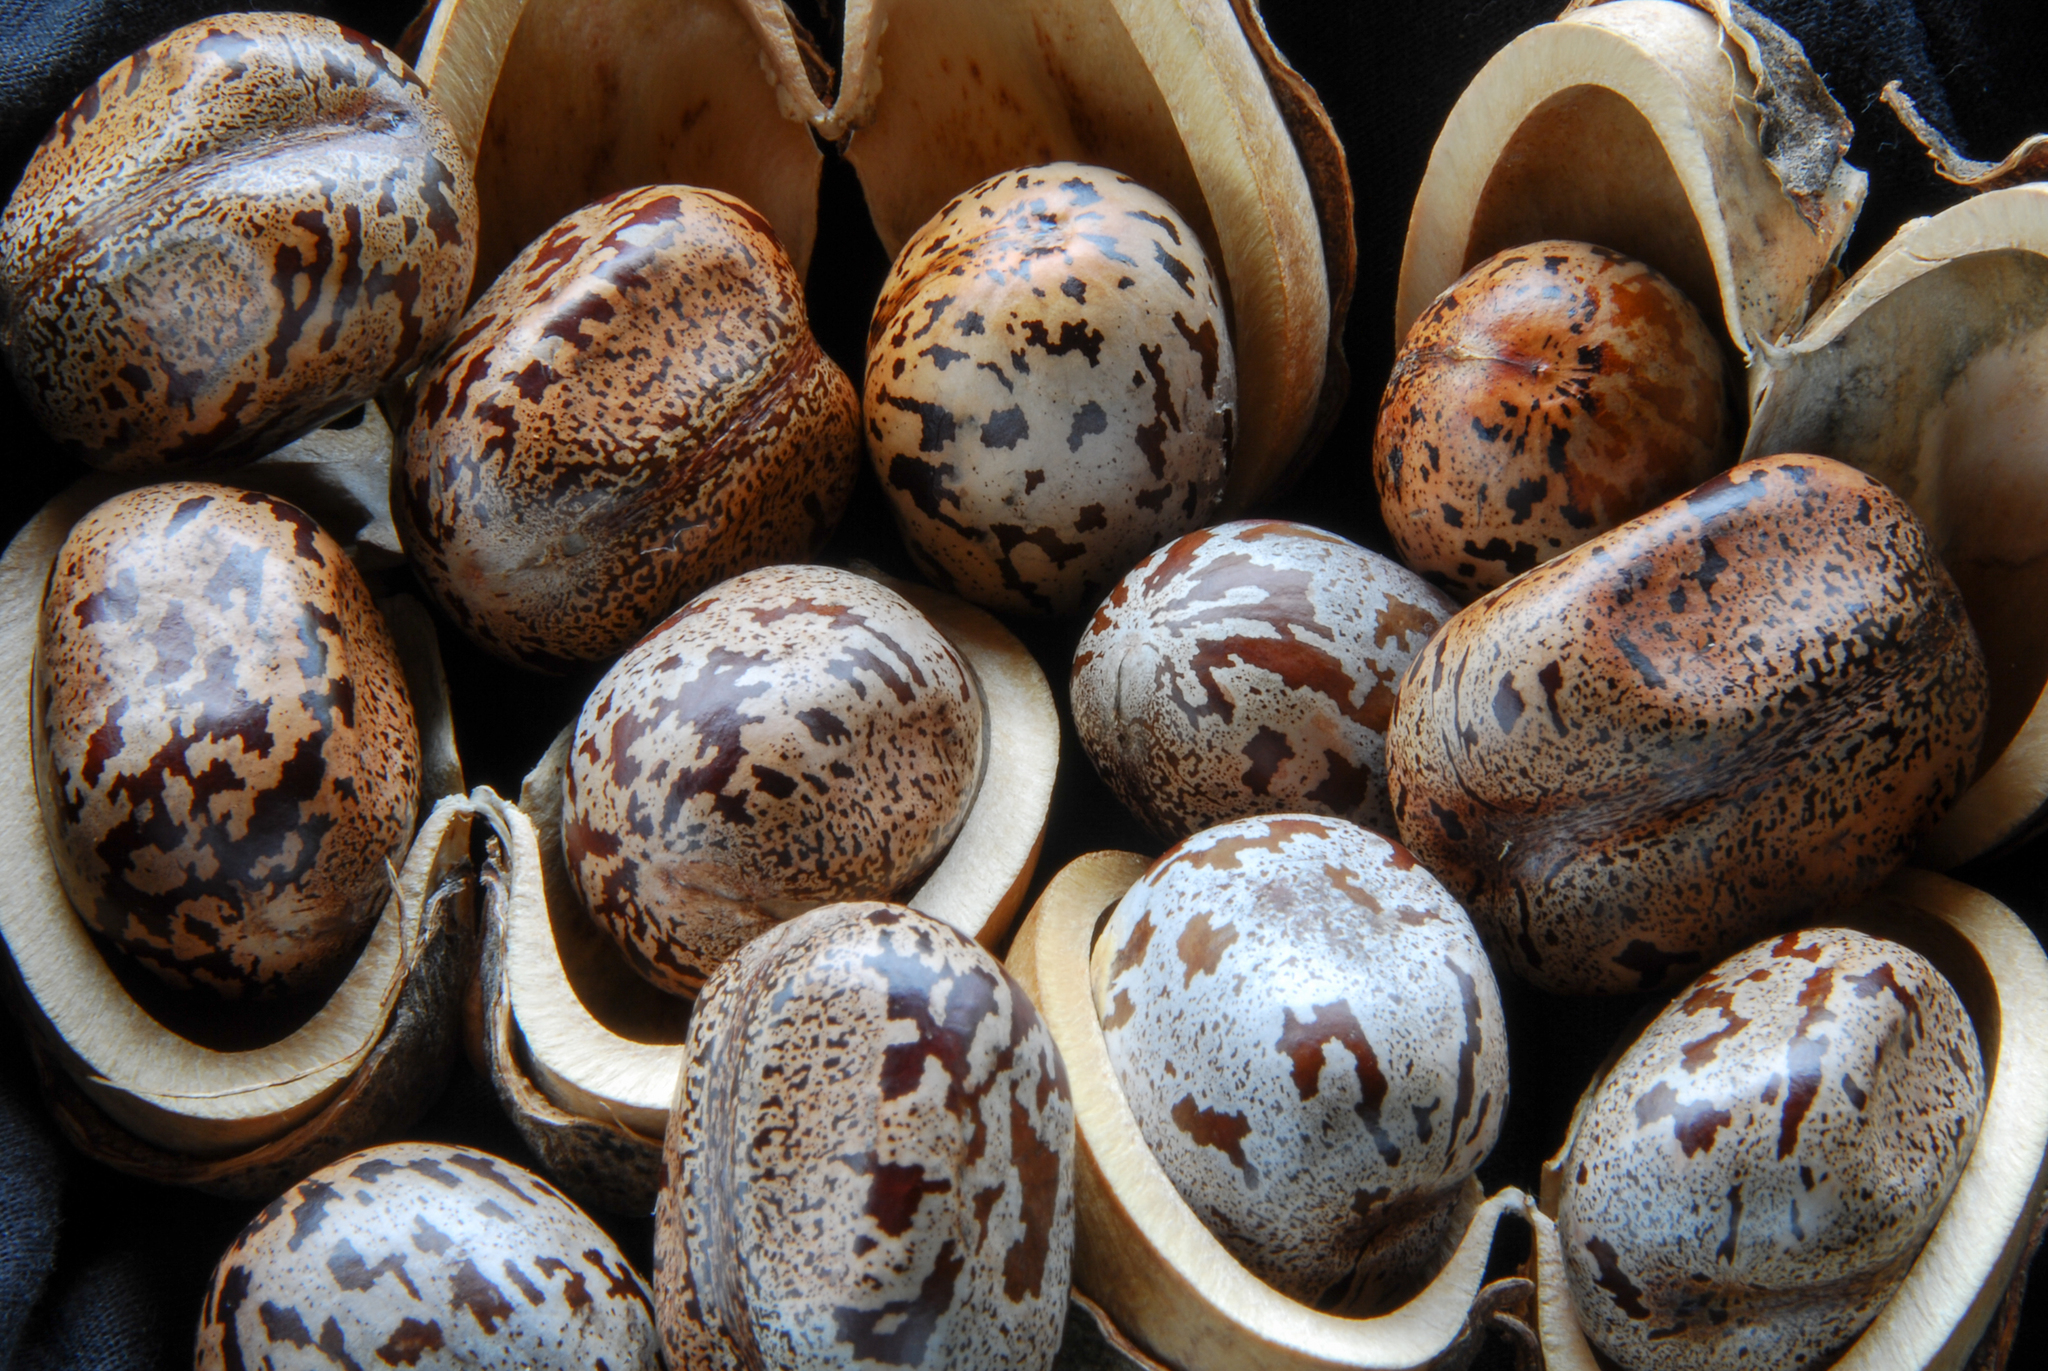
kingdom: Plantae
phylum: Tracheophyta
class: Magnoliopsida
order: Malpighiales
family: Euphorbiaceae
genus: Hevea
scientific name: Hevea brasiliensis
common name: Natural rubber
